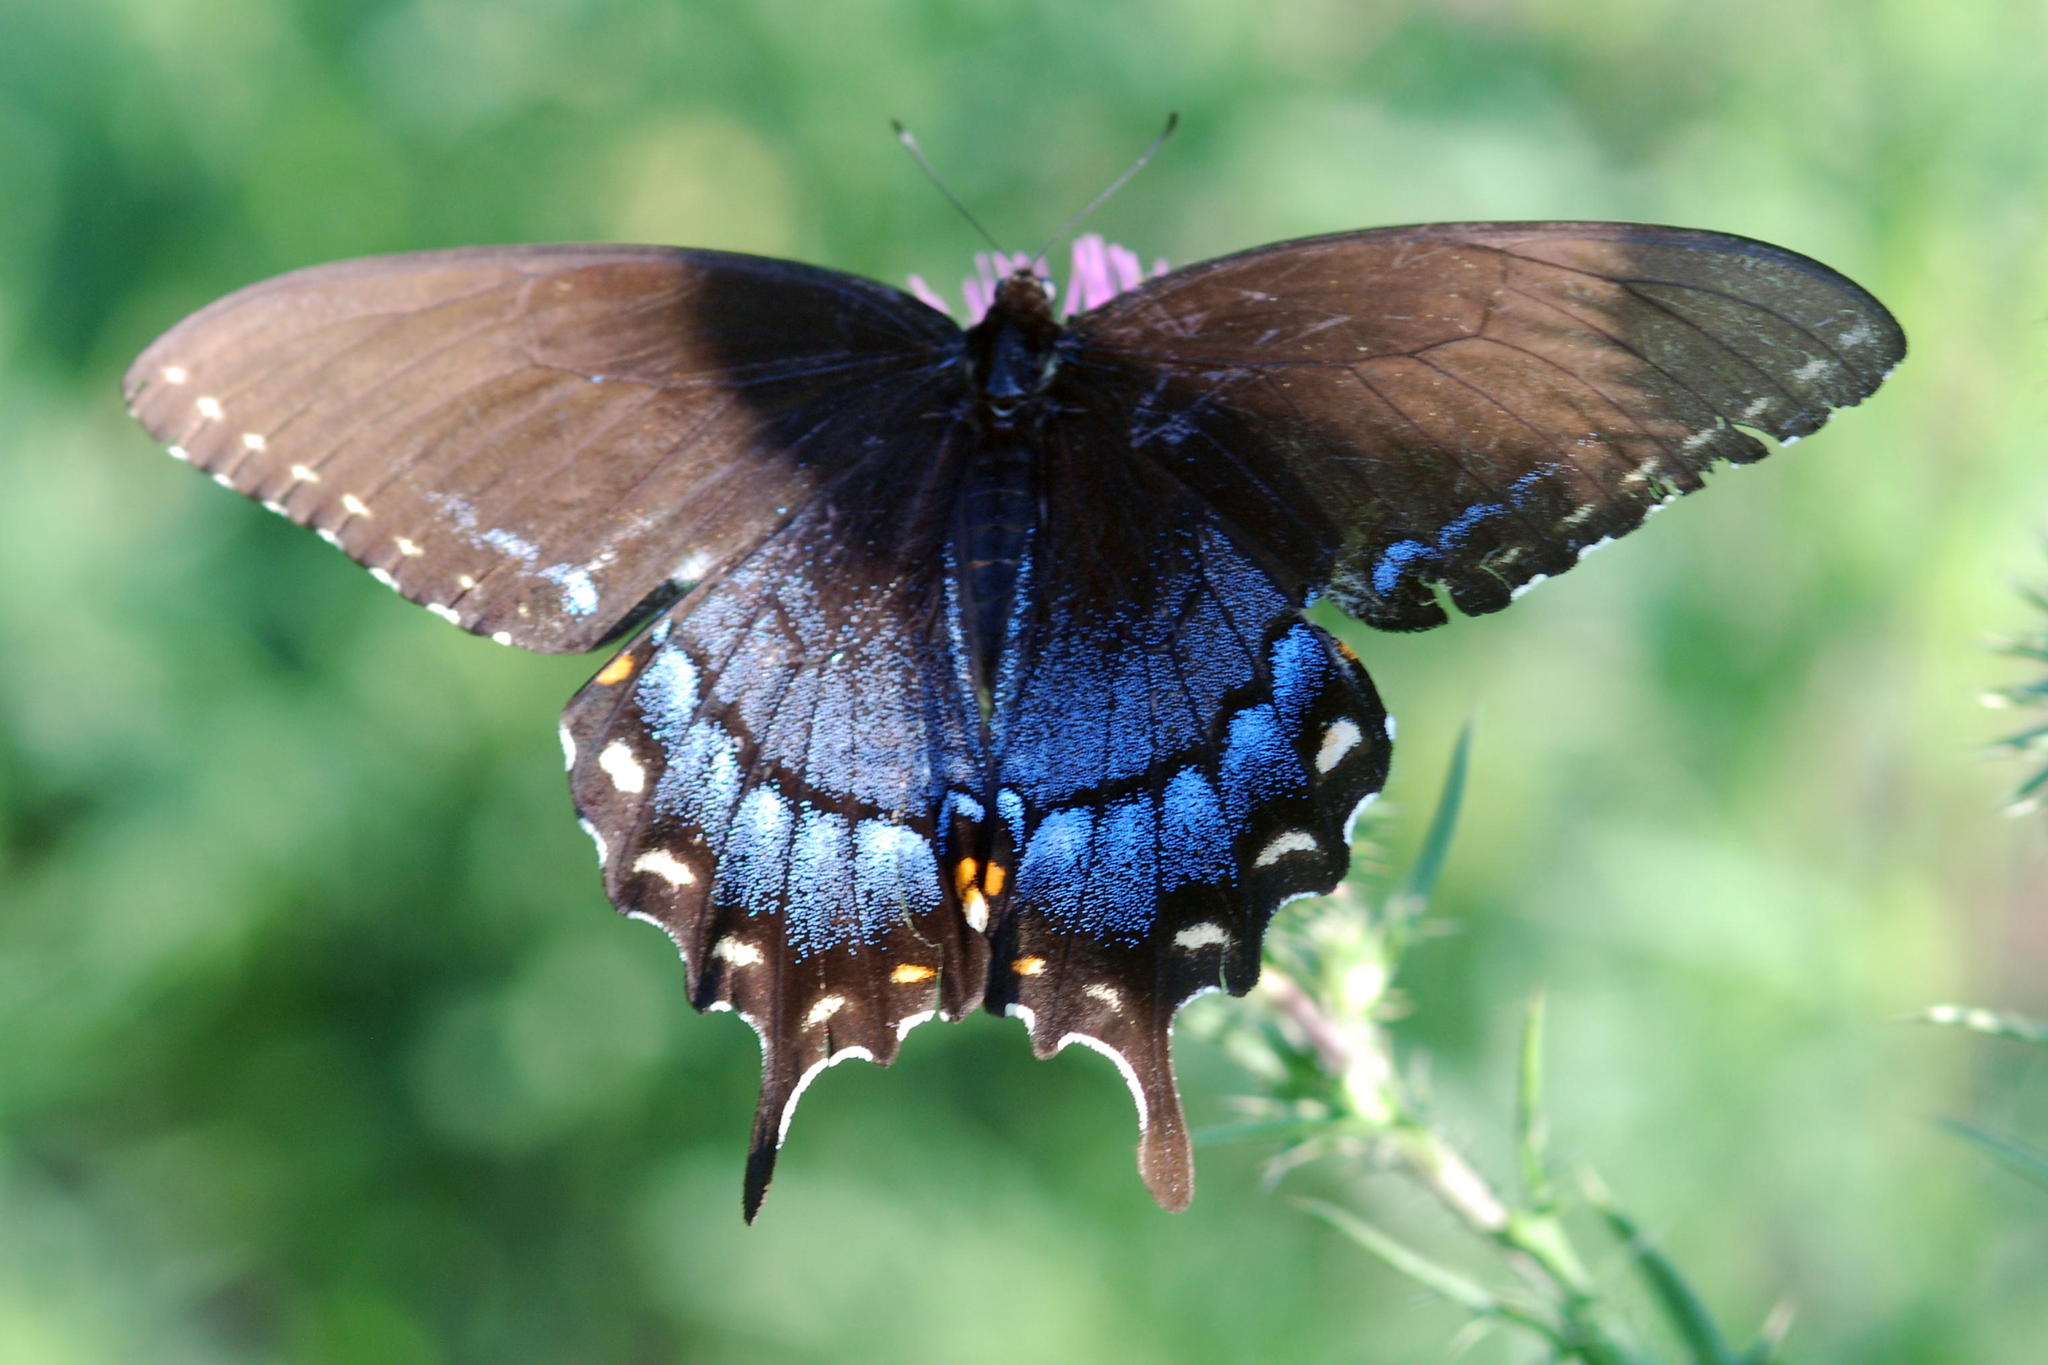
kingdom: Animalia
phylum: Arthropoda
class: Insecta
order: Lepidoptera
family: Papilionidae
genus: Papilio
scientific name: Papilio glaucus
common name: Tiger swallowtail
